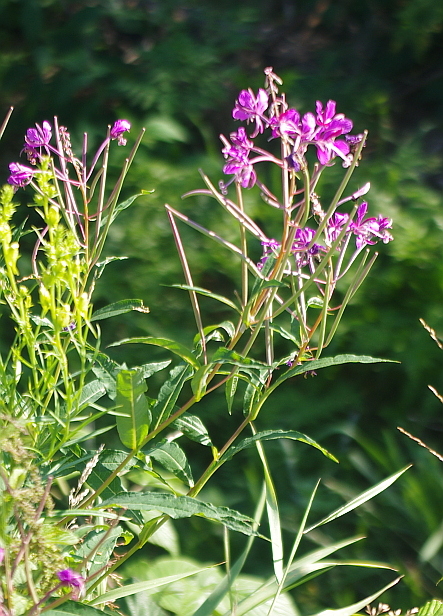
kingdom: Plantae
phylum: Tracheophyta
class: Magnoliopsida
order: Myrtales
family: Onagraceae
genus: Chamaenerion
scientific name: Chamaenerion angustifolium
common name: Fireweed
